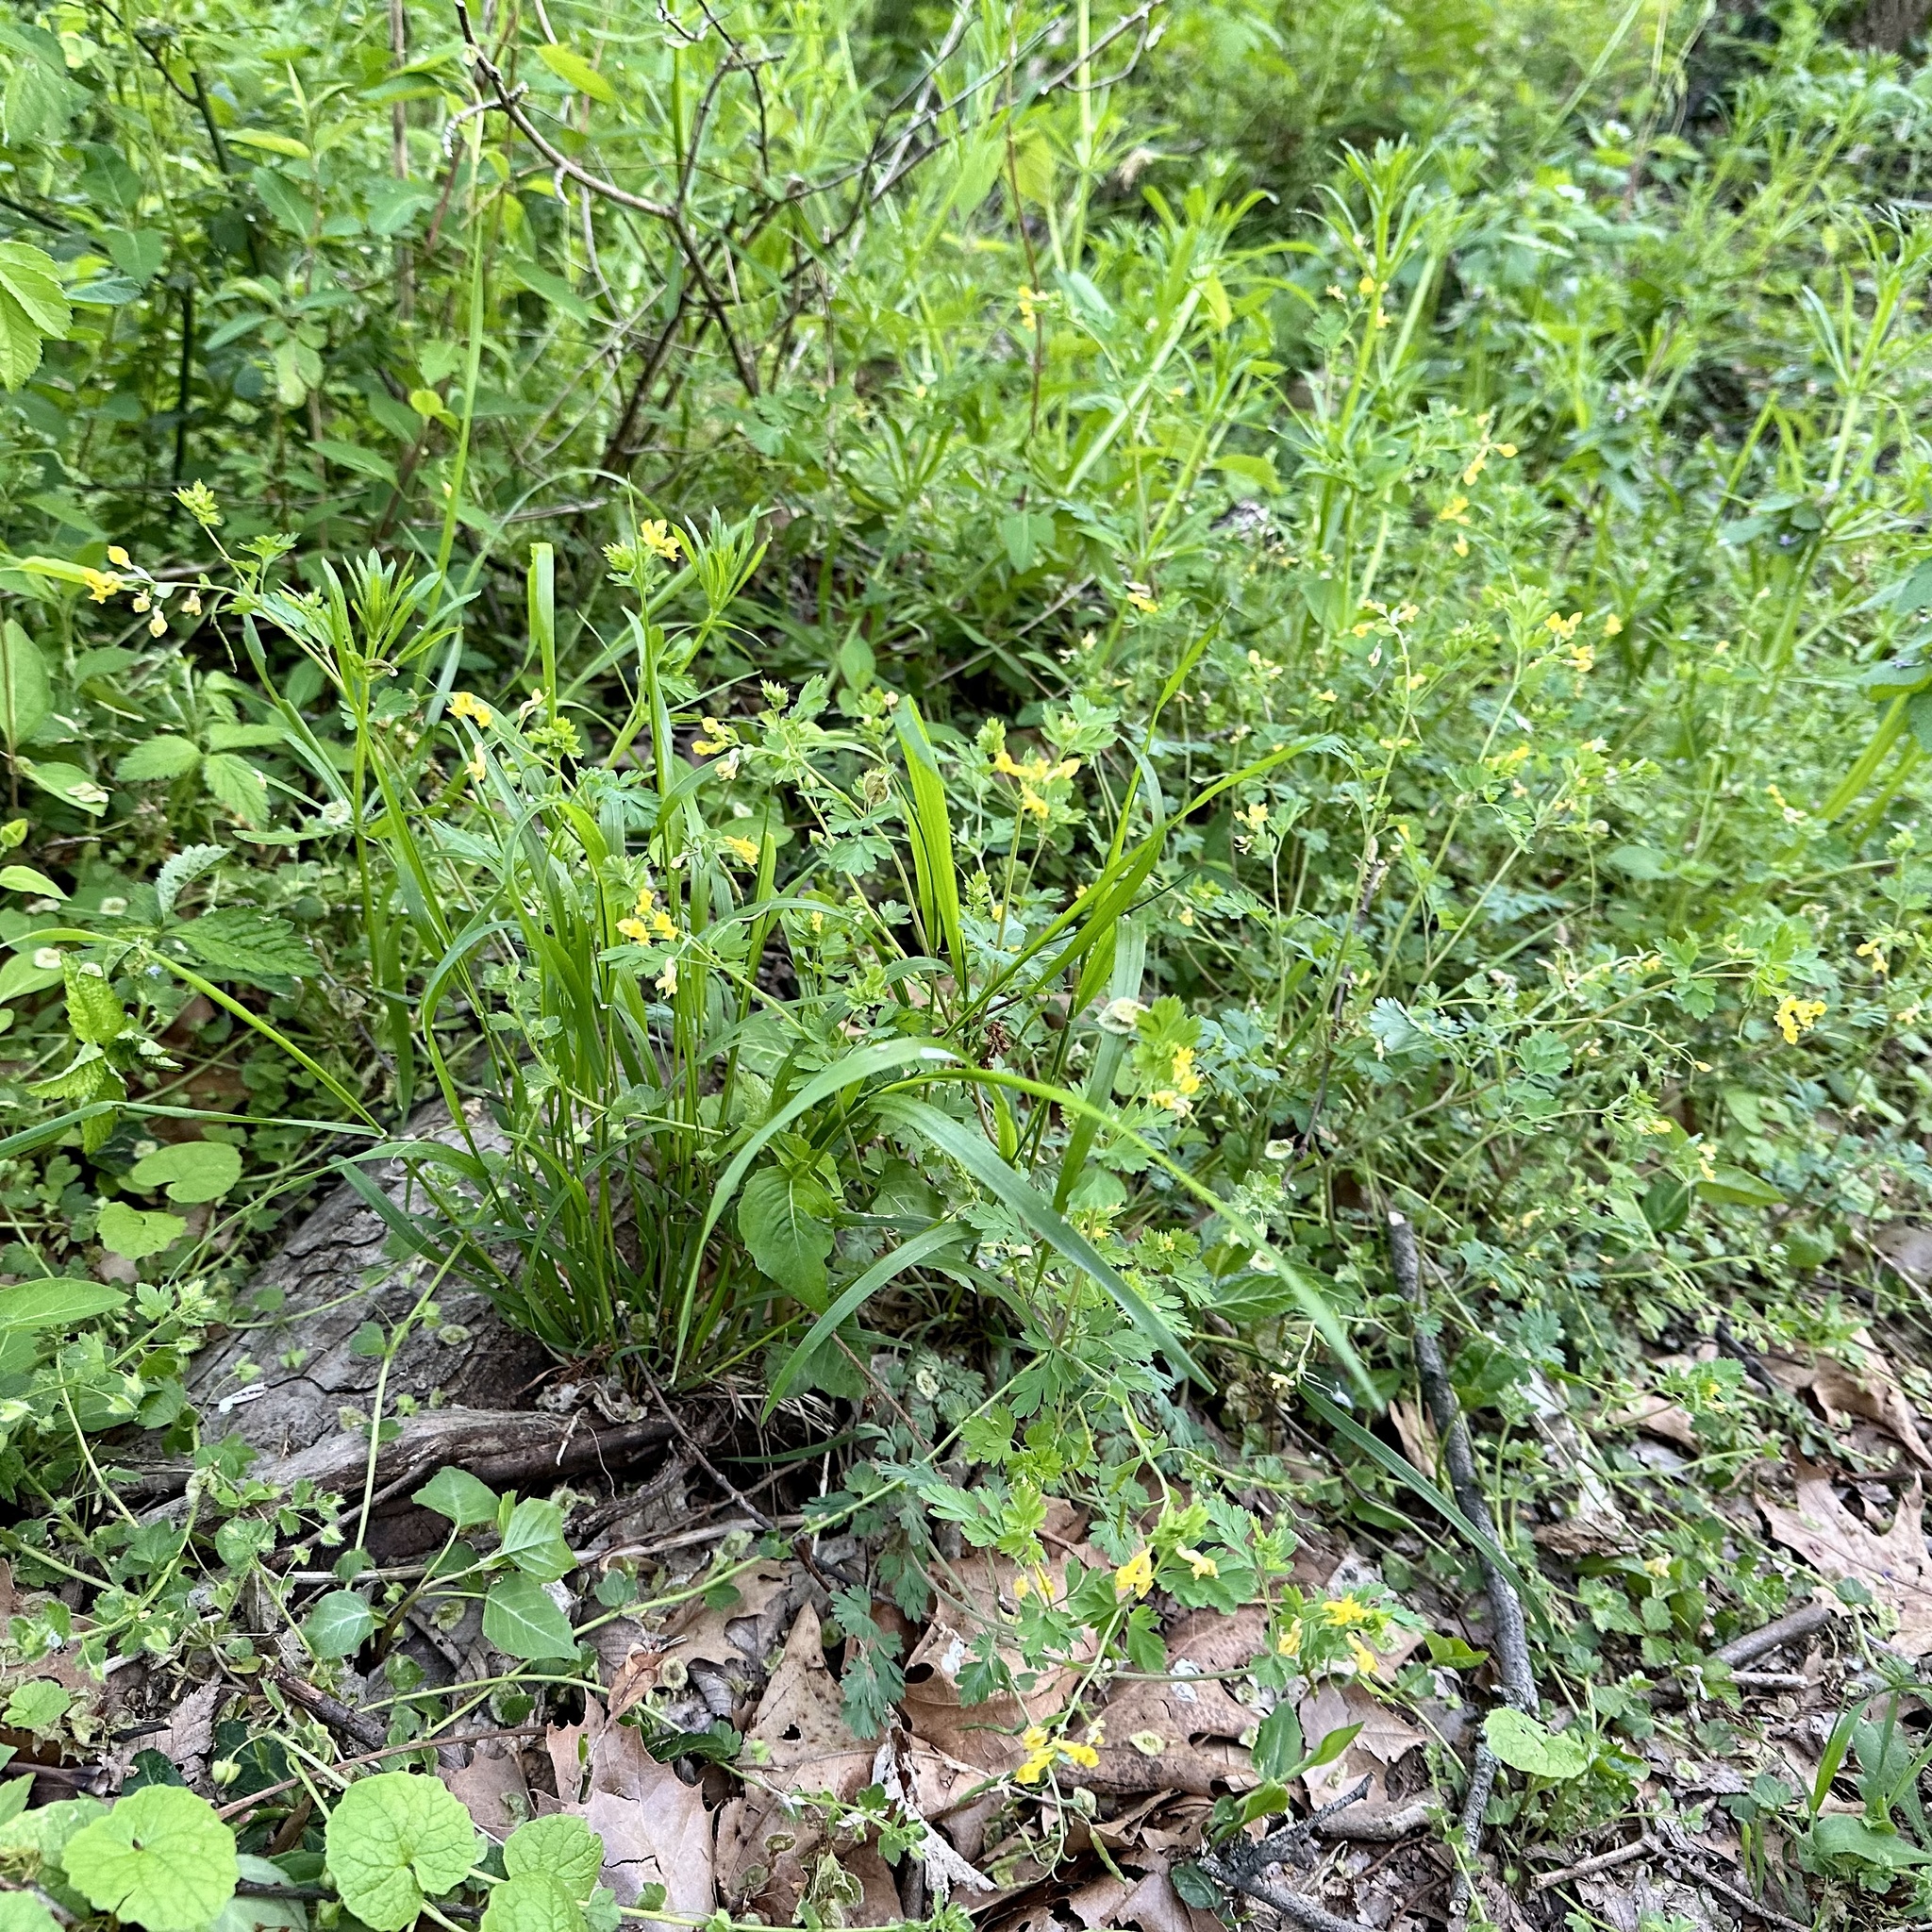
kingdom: Plantae
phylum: Tracheophyta
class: Magnoliopsida
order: Ranunculales
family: Papaveraceae
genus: Corydalis
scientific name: Corydalis flavula
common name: Yellow corydalis
